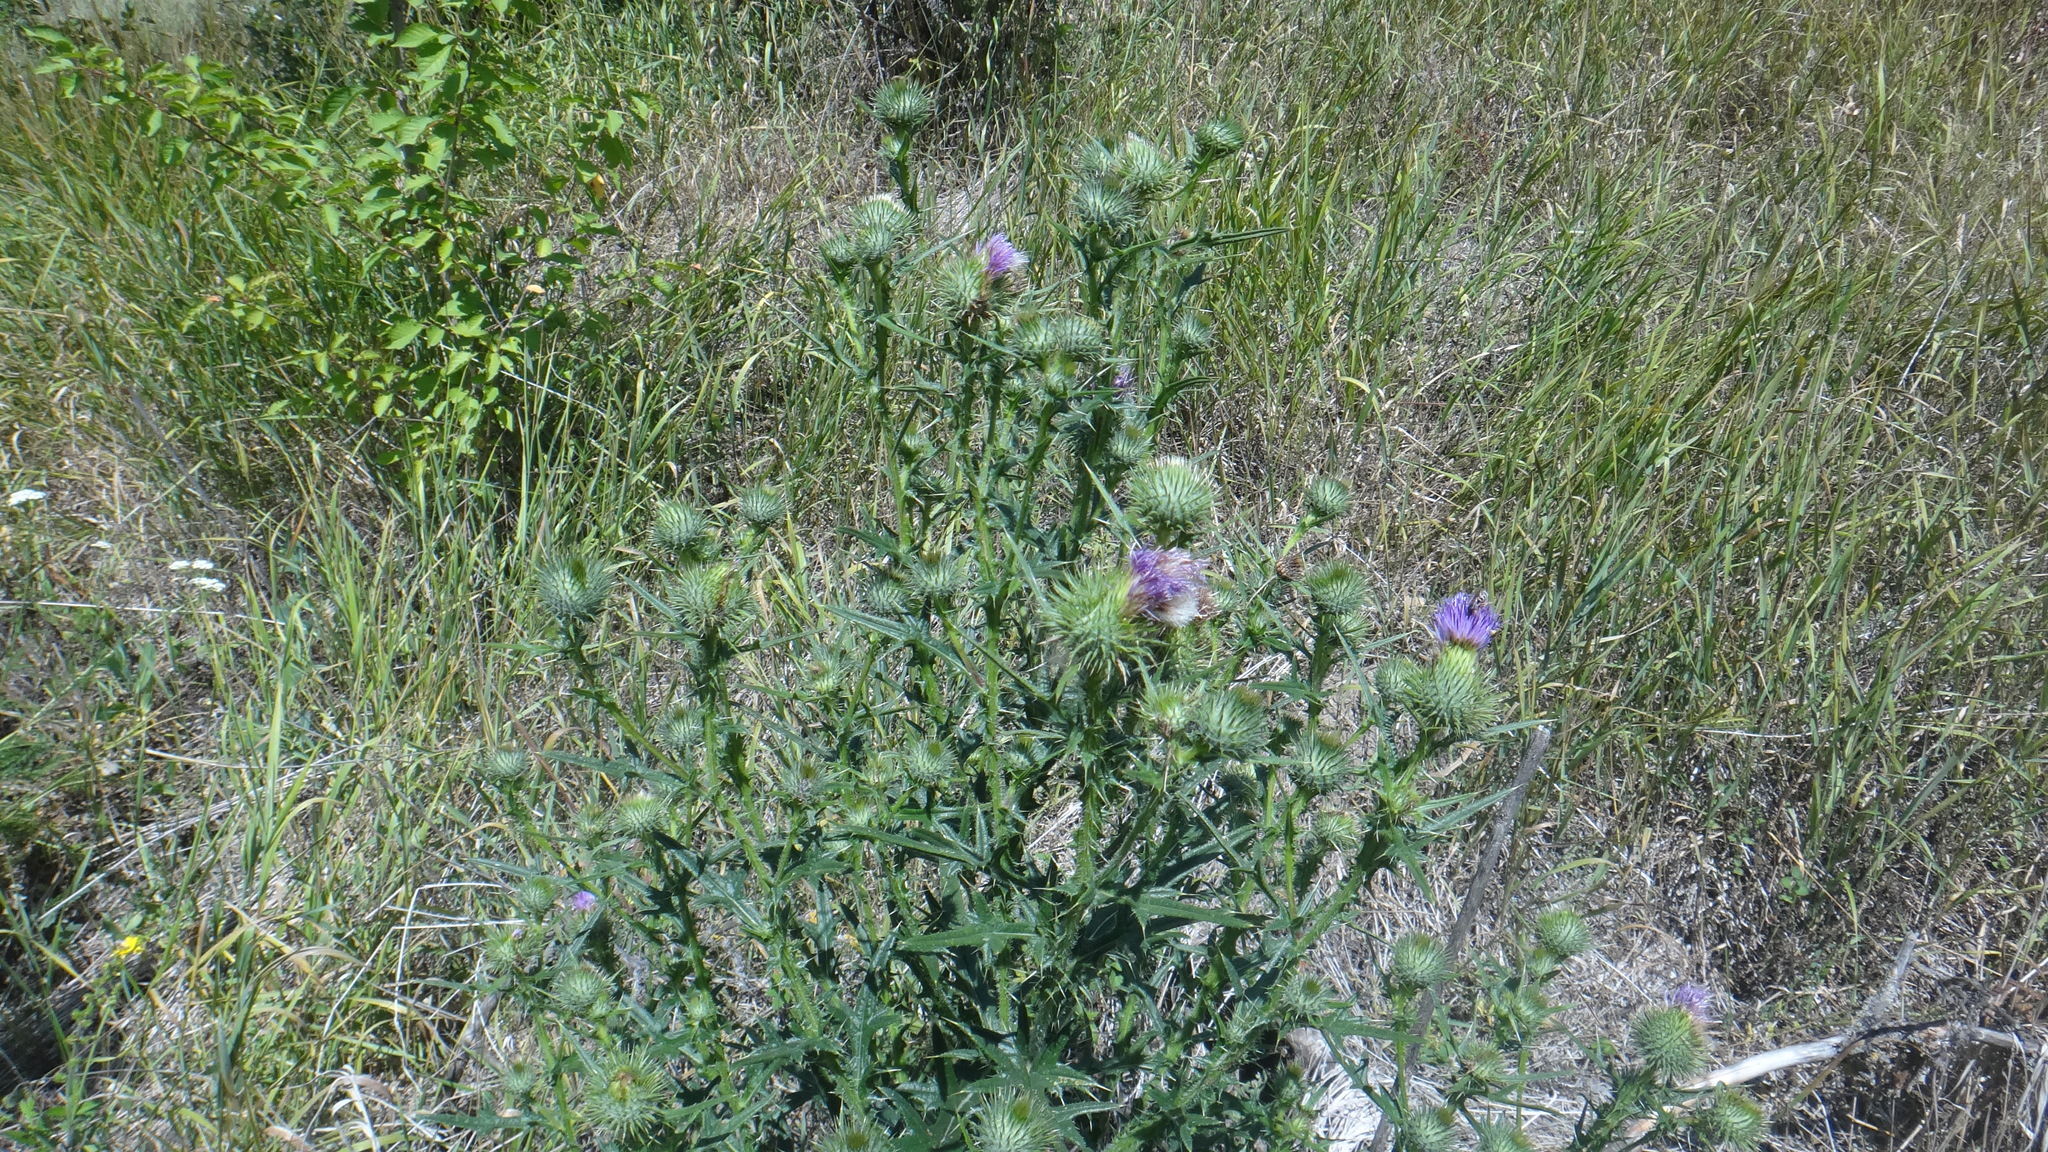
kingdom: Plantae
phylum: Tracheophyta
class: Magnoliopsida
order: Asterales
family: Asteraceae
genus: Cirsium
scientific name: Cirsium vulgare
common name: Bull thistle
